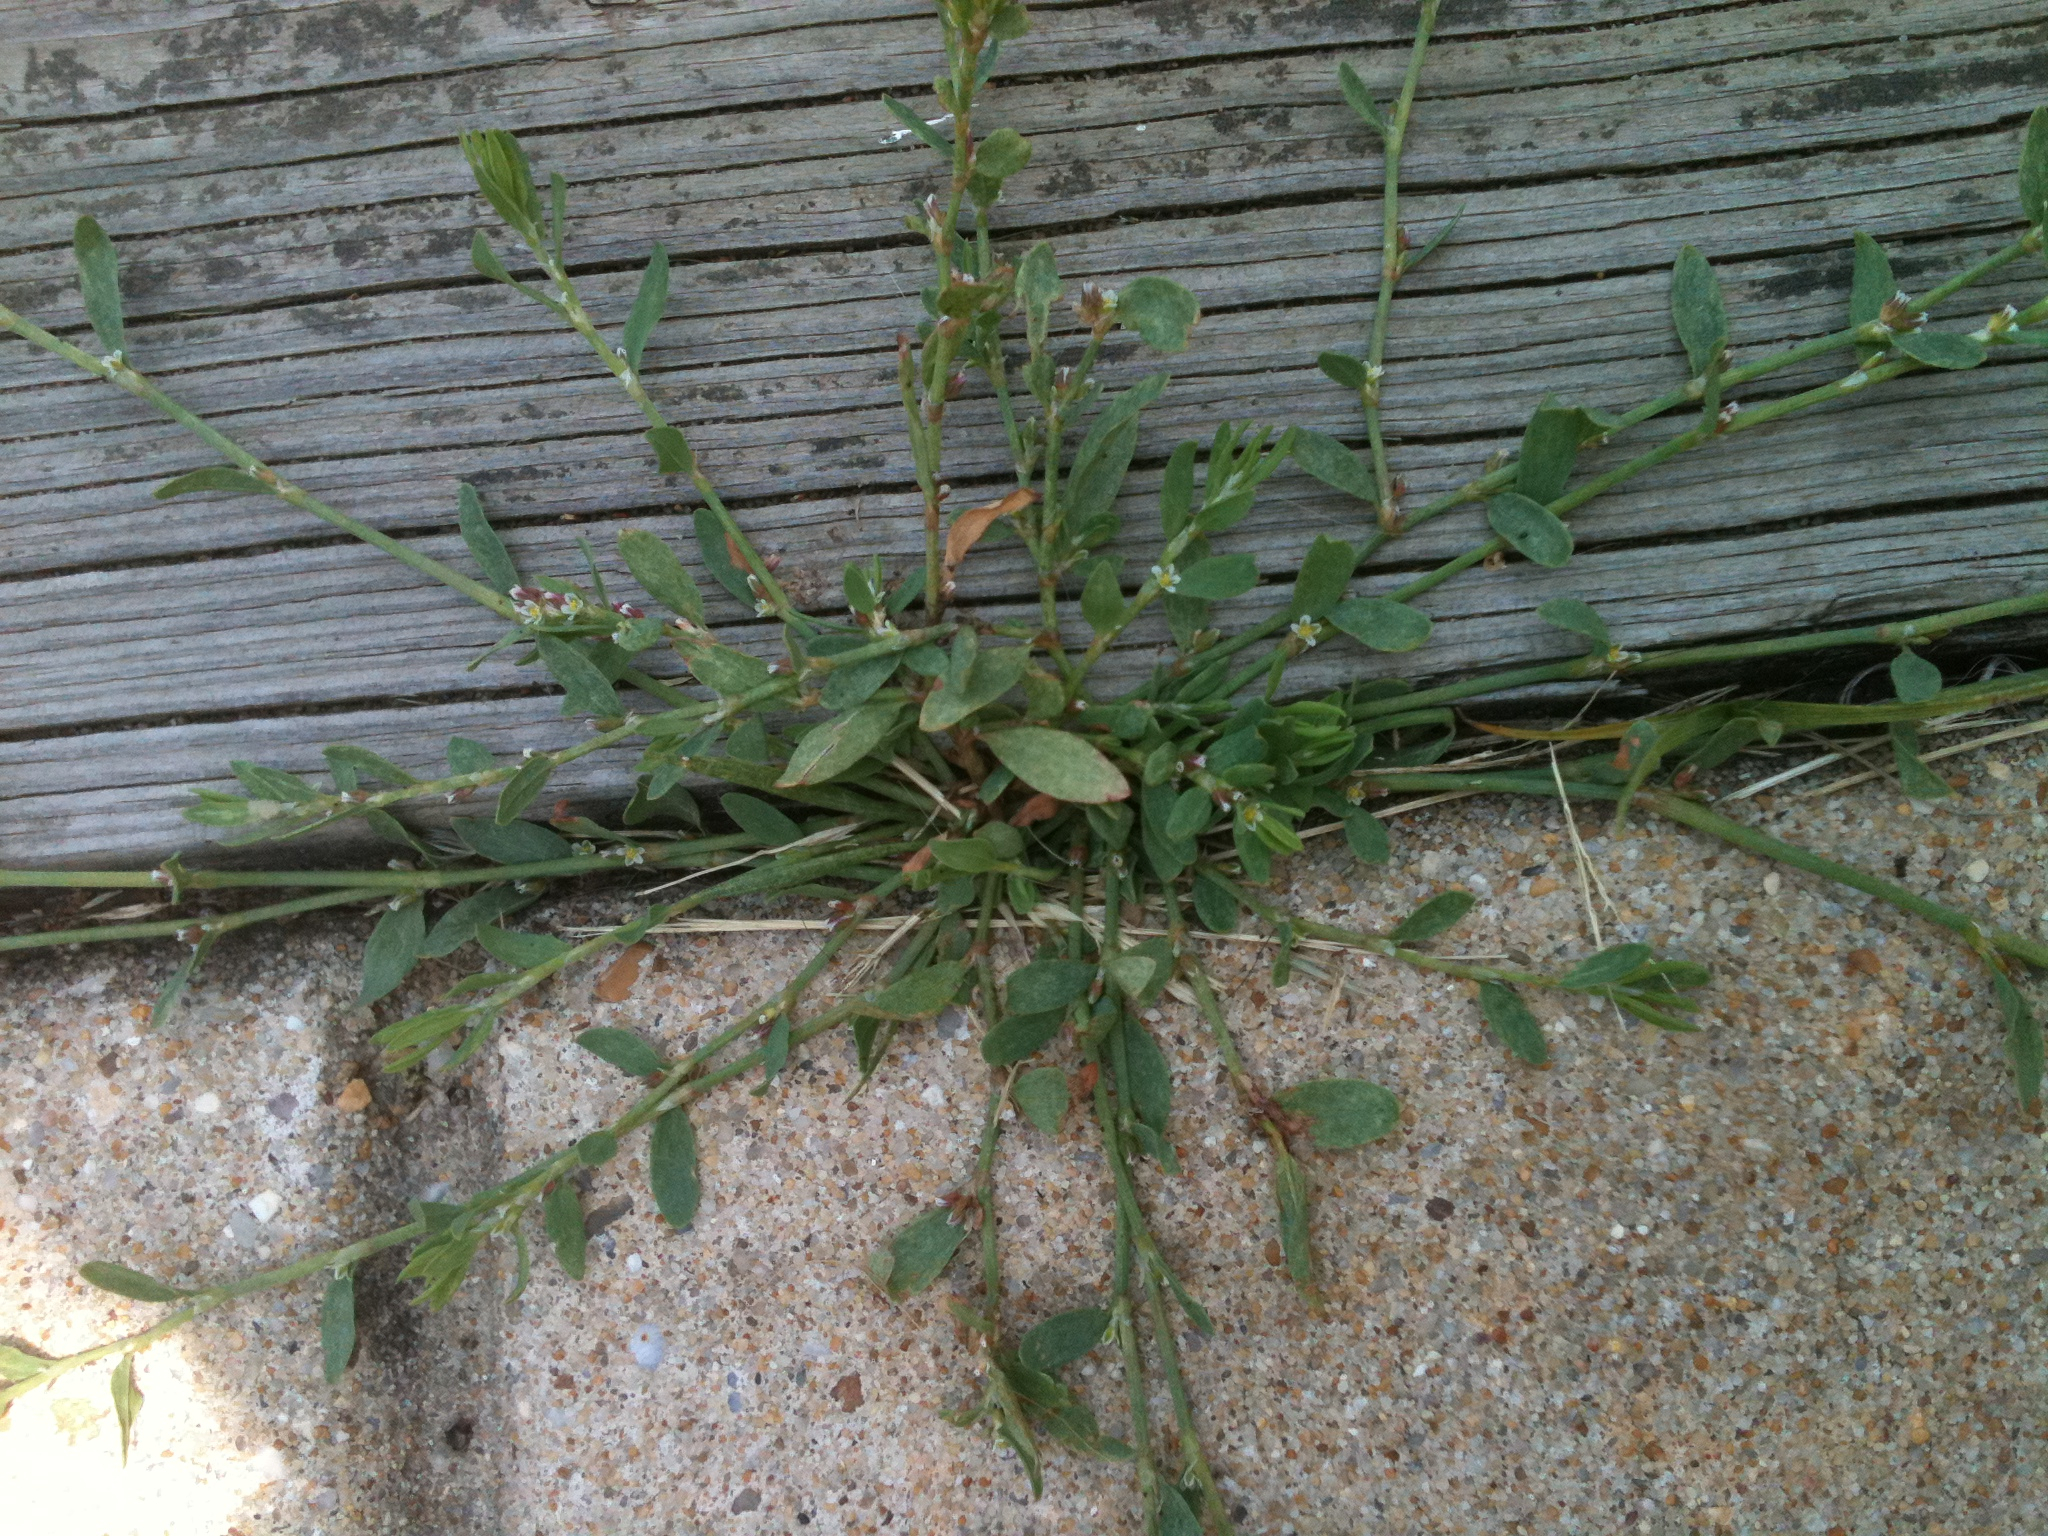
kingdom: Plantae
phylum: Tracheophyta
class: Magnoliopsida
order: Caryophyllales
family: Polygonaceae
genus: Polygonum
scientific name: Polygonum aviculare
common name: Prostrate knotweed
